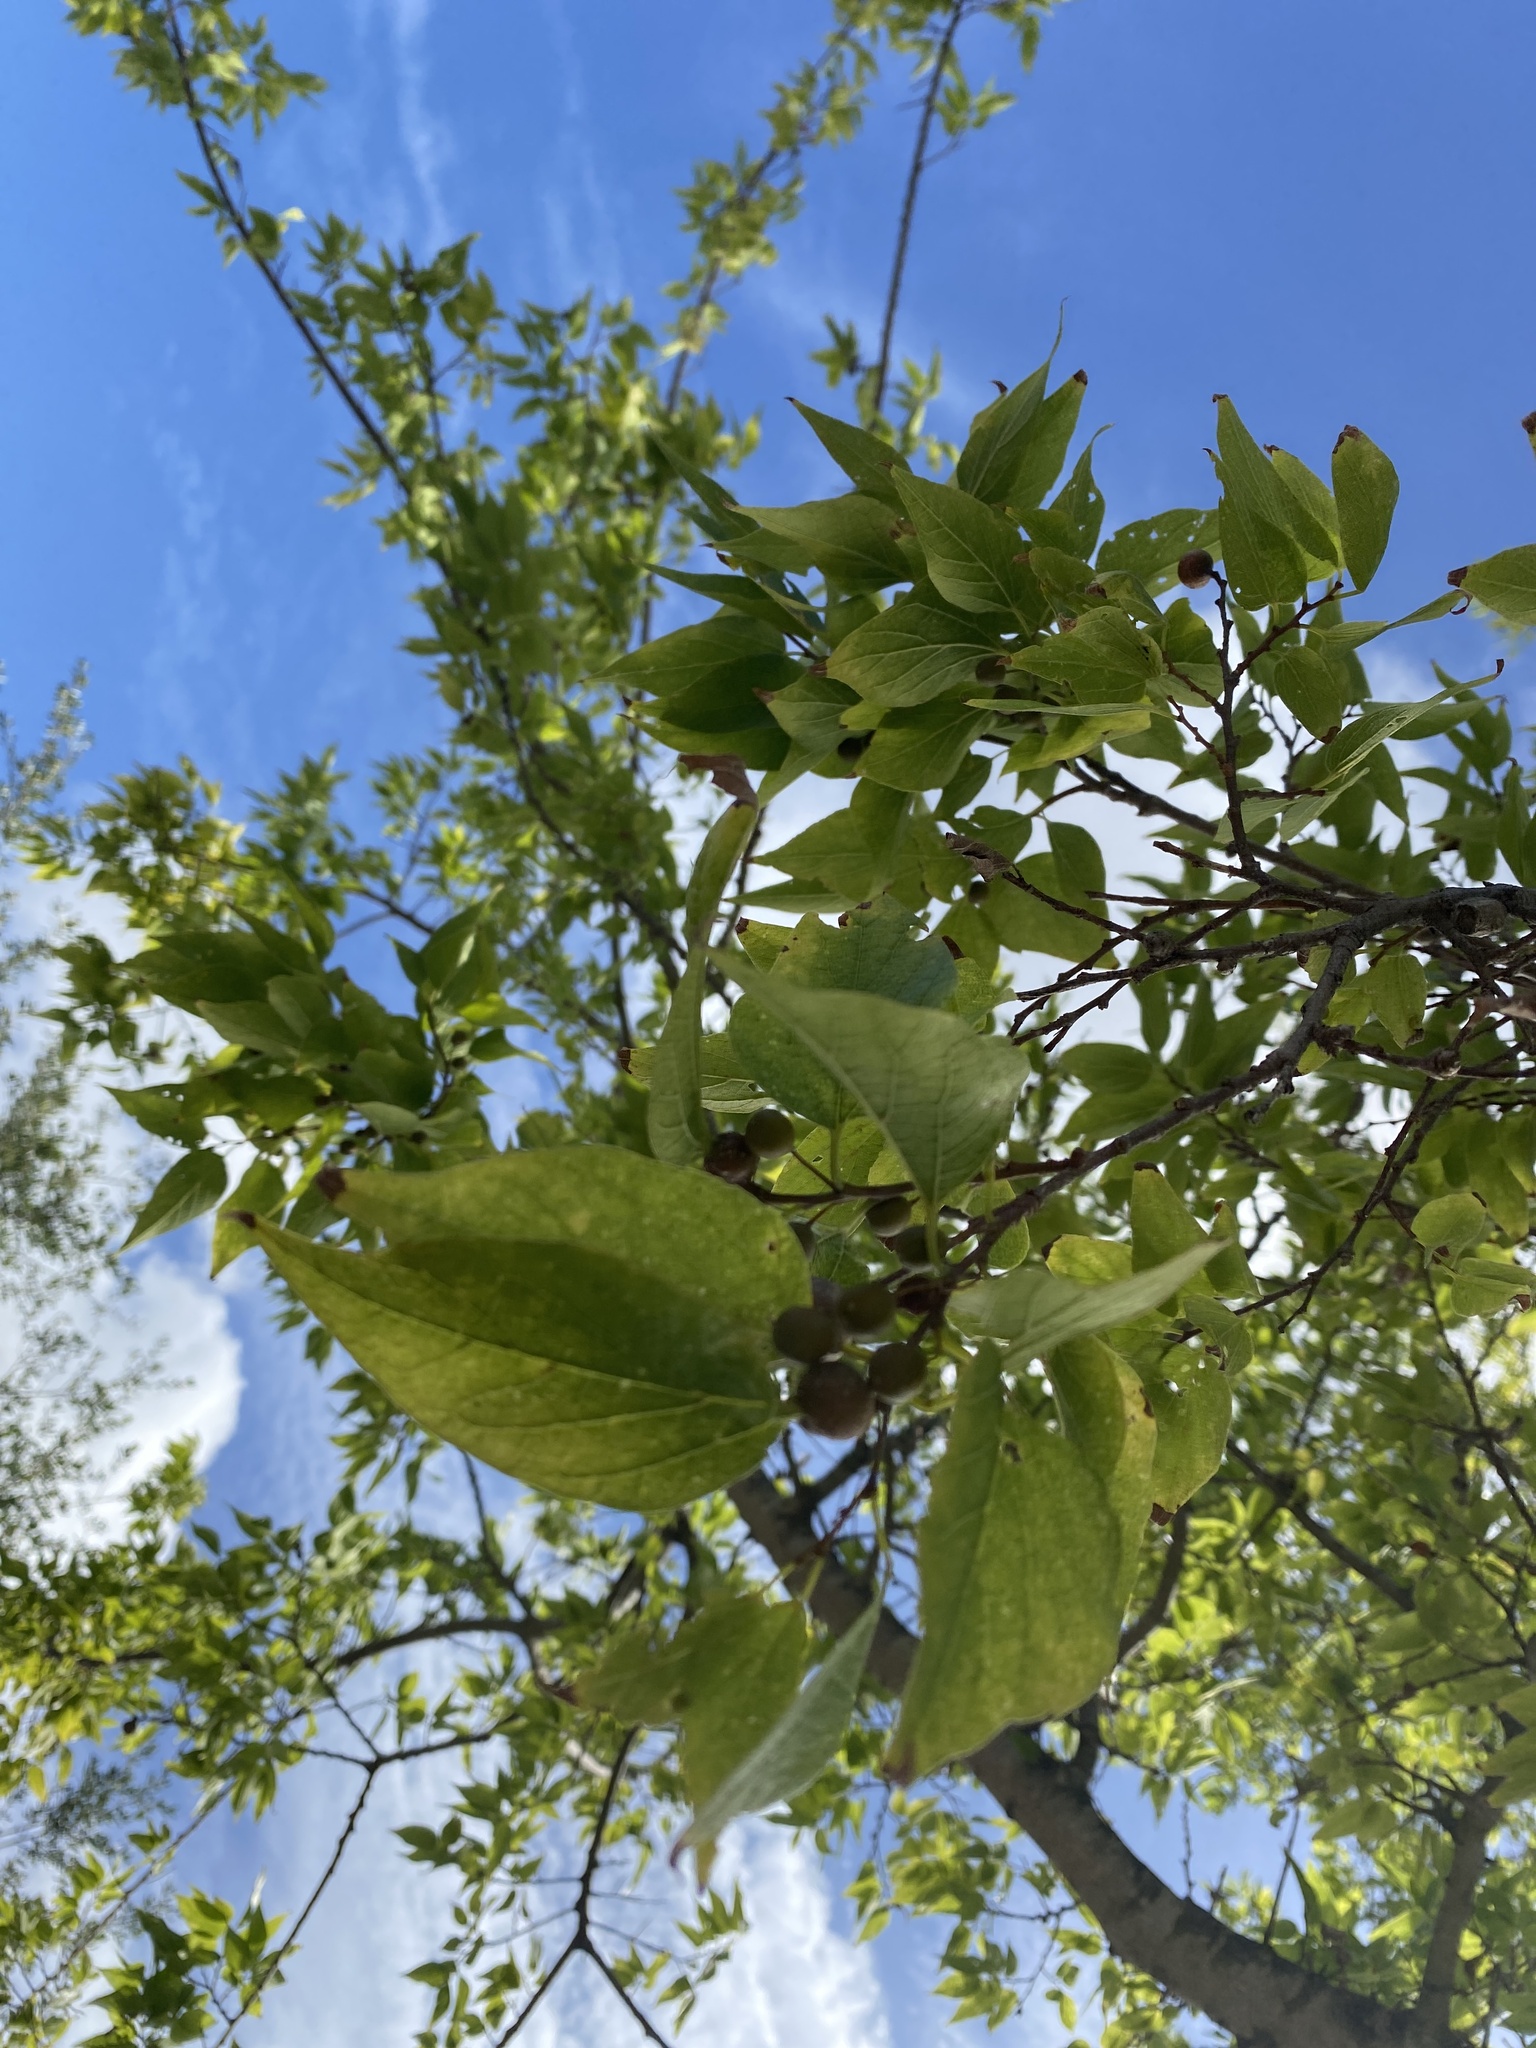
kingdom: Plantae
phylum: Tracheophyta
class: Magnoliopsida
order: Rosales
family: Cannabaceae
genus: Celtis
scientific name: Celtis laevigata
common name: Sugarberry
